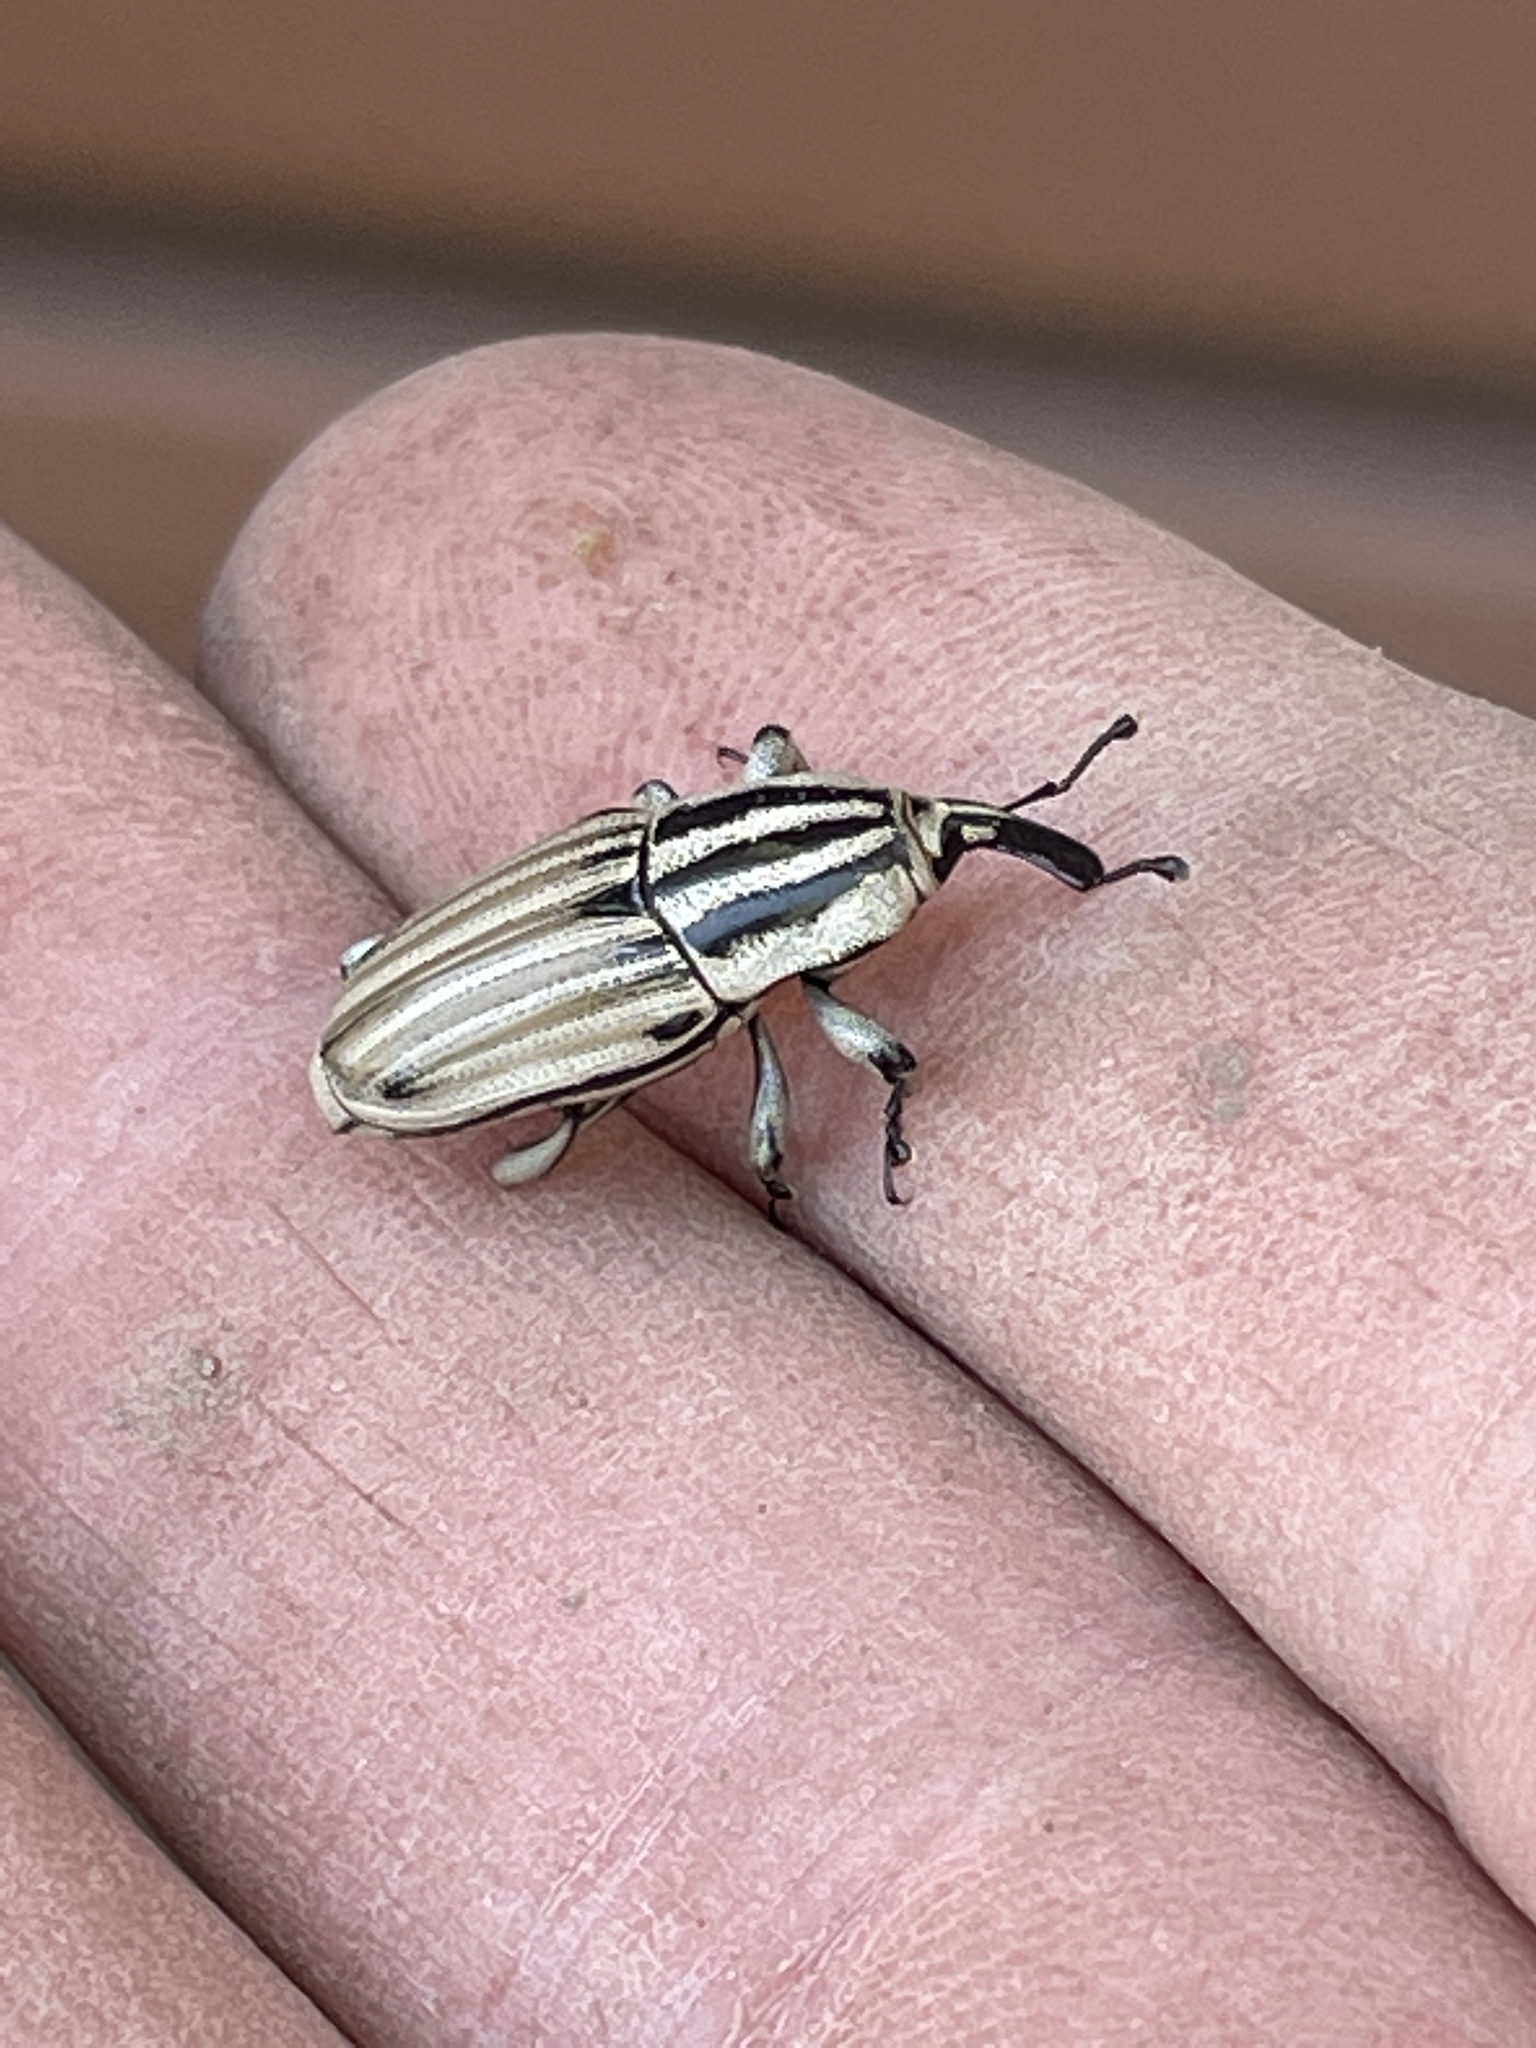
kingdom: Animalia
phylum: Arthropoda
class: Insecta
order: Coleoptera
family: Dryophthoridae
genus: Sphenophorus
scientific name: Sphenophorus aequalis
